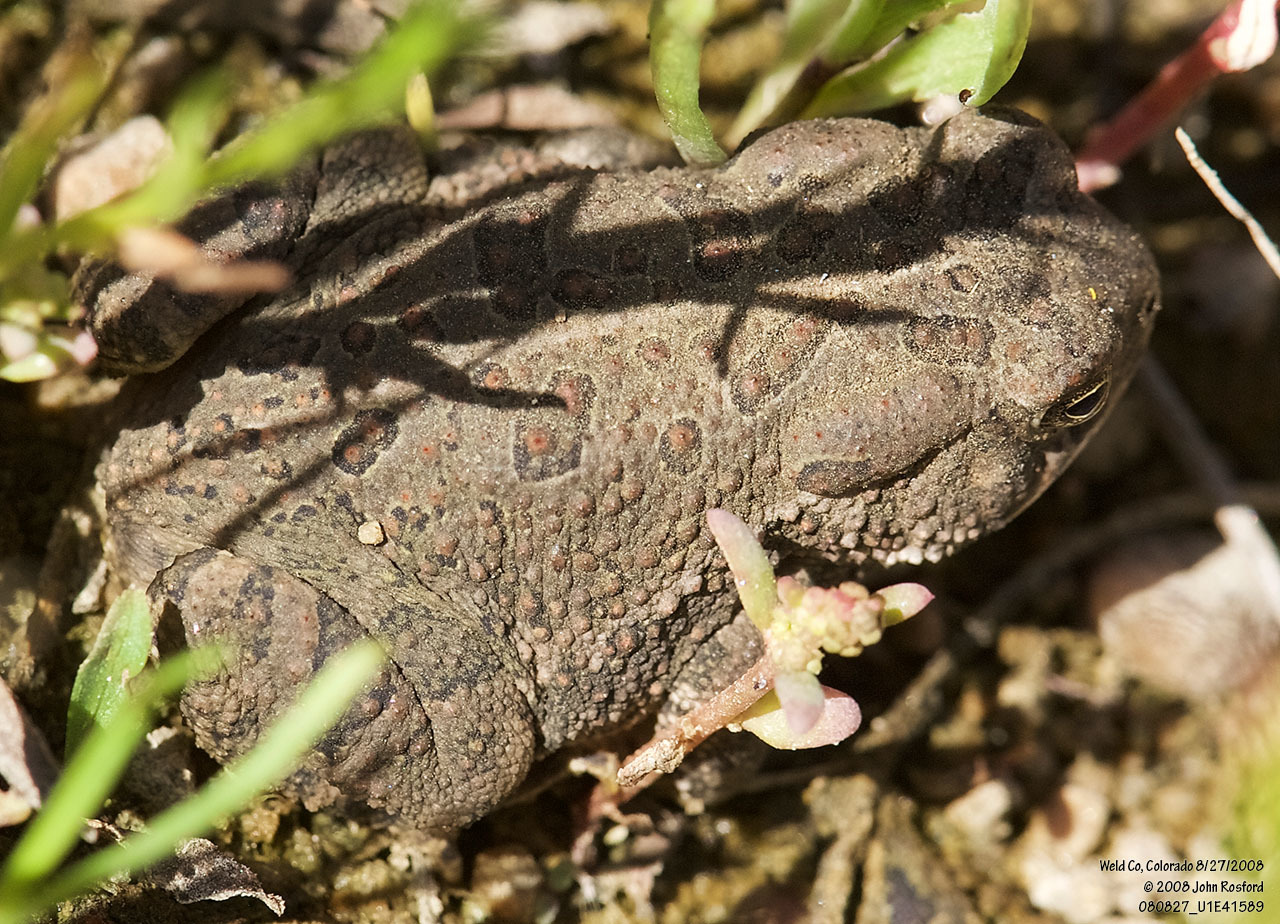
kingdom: Animalia
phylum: Chordata
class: Amphibia
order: Anura
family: Bufonidae
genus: Anaxyrus
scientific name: Anaxyrus woodhousii
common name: Woodhouse's toad
